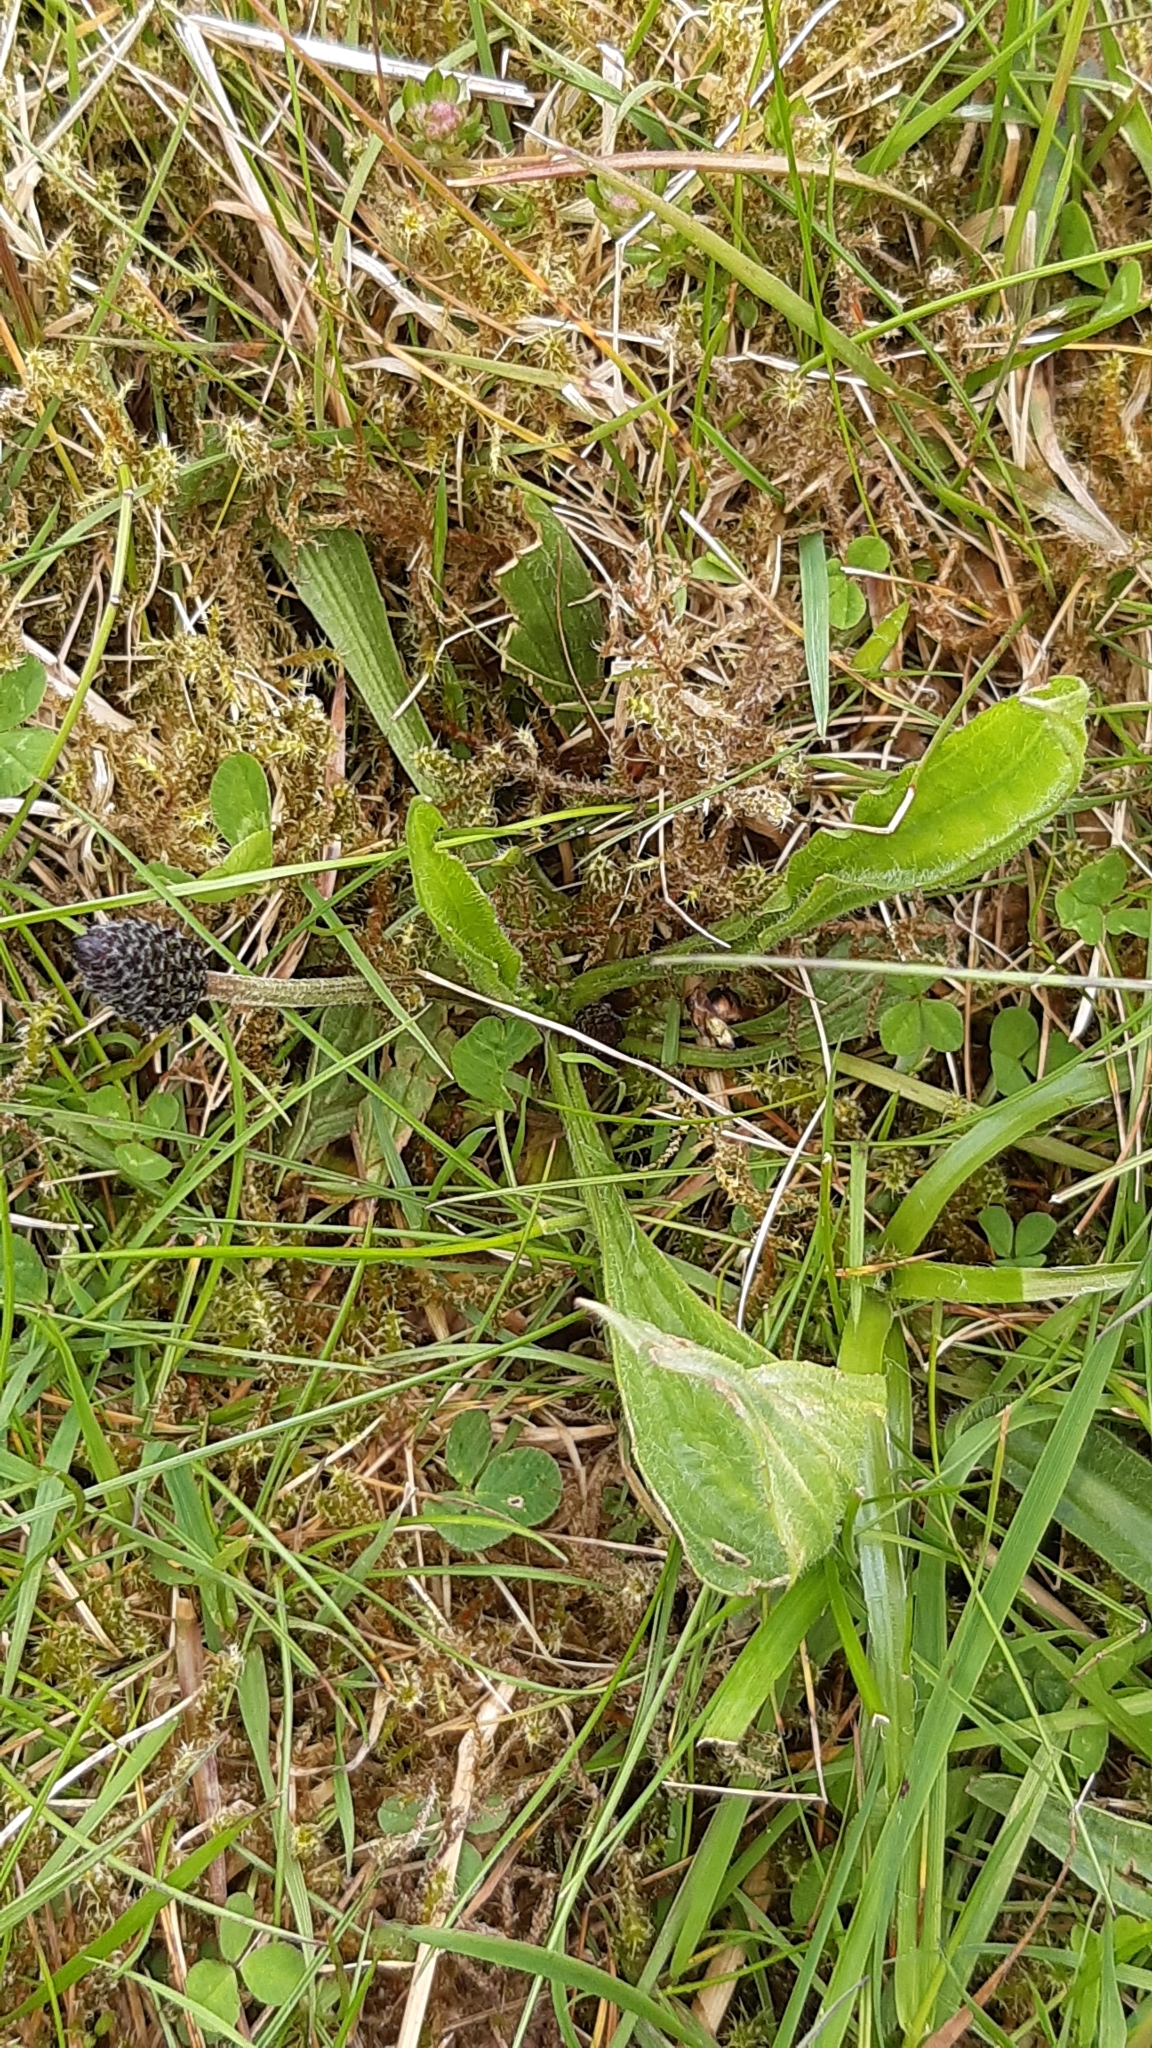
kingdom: Plantae
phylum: Tracheophyta
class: Magnoliopsida
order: Lamiales
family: Plantaginaceae
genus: Plantago
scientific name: Plantago lanceolata
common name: Ribwort plantain
